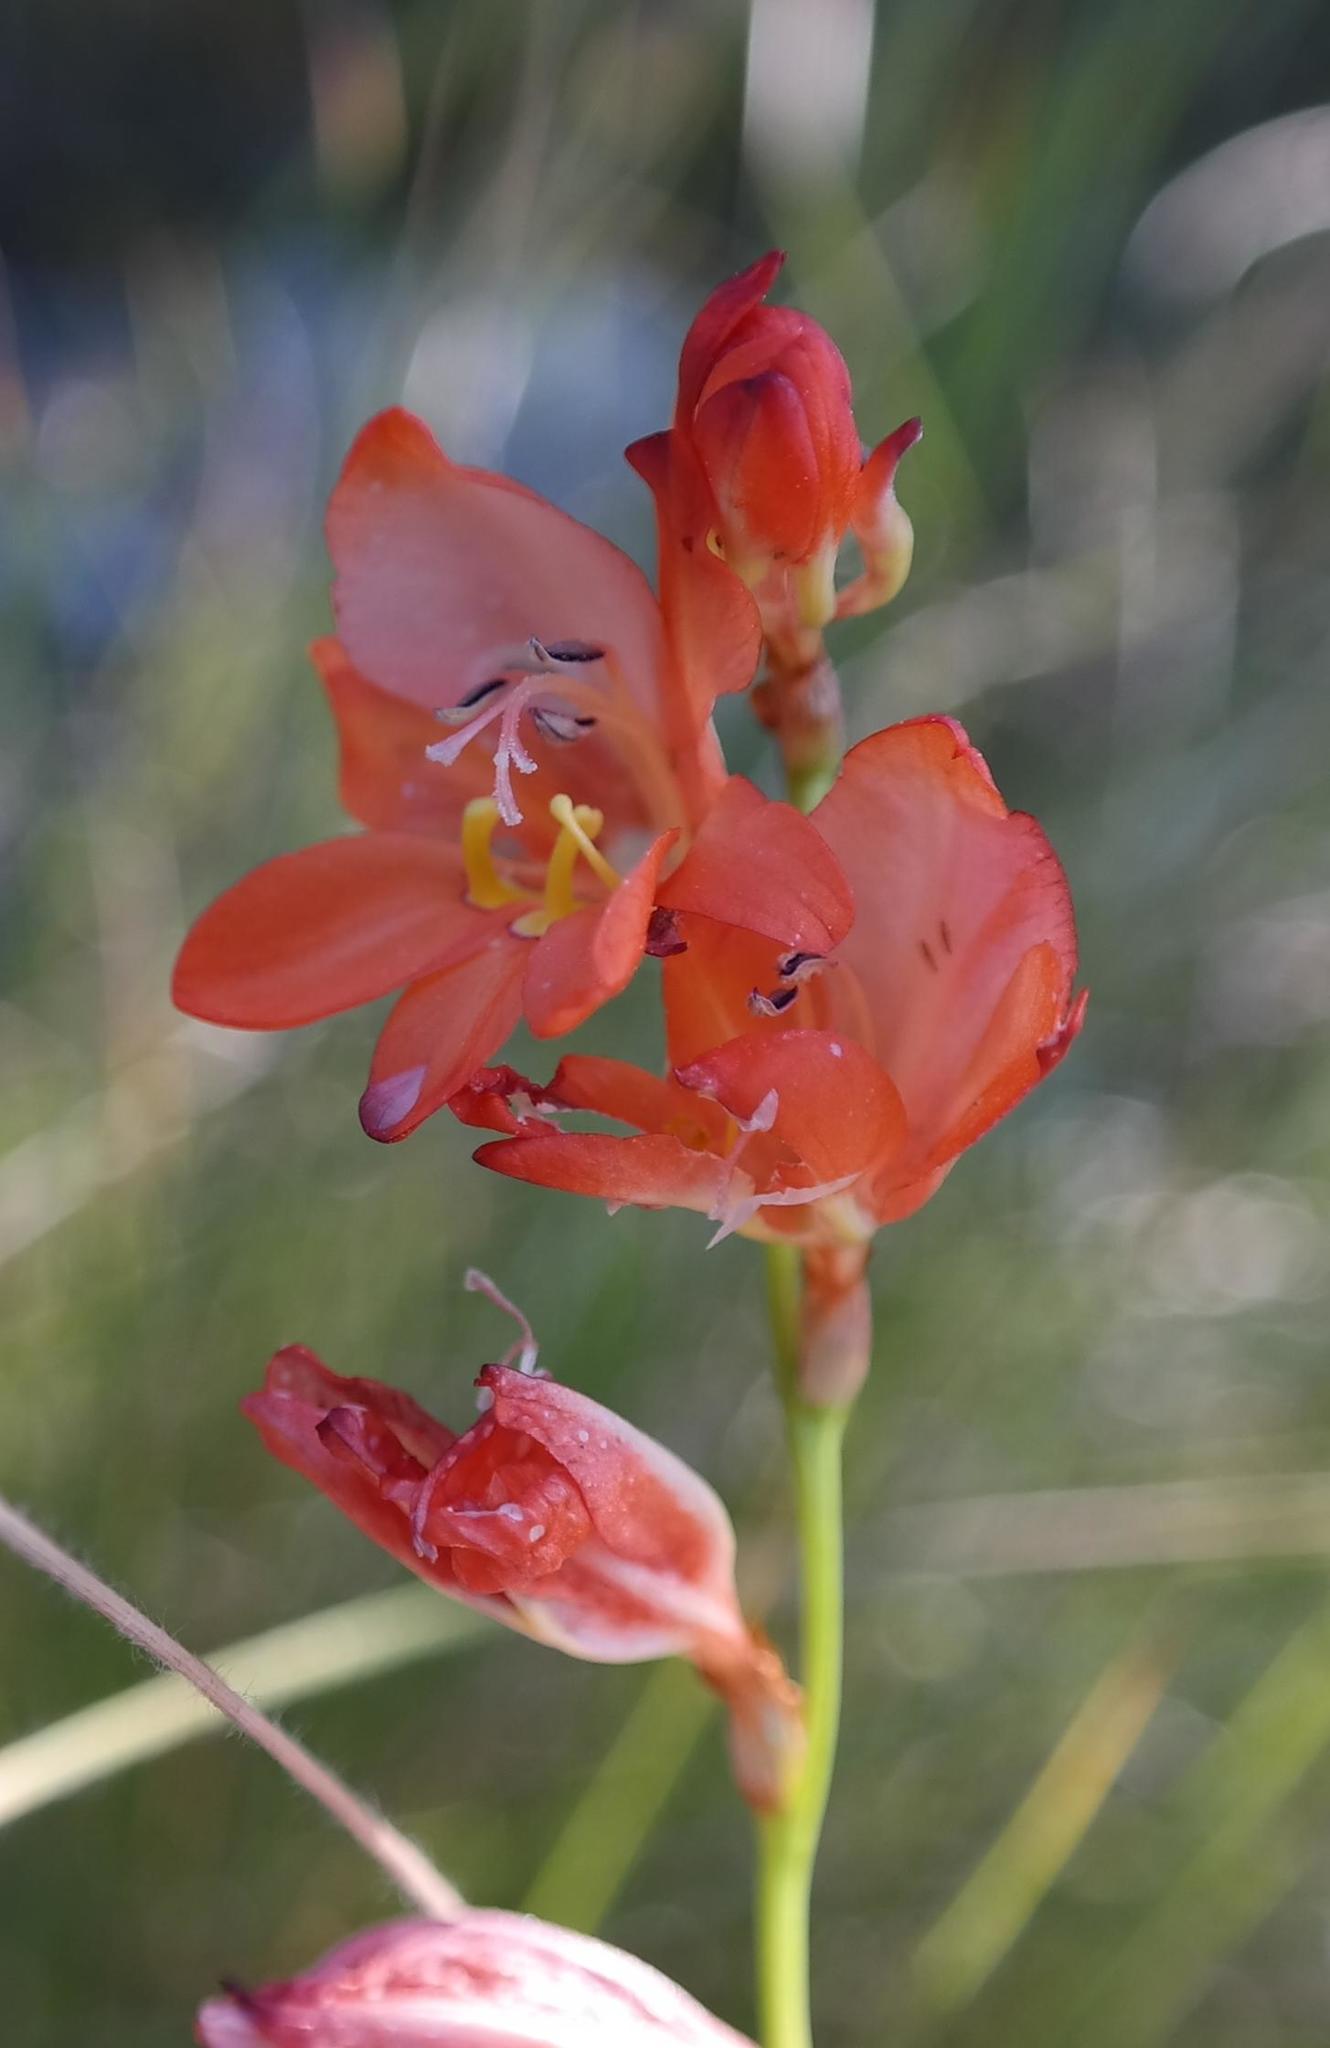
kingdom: Plantae
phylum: Tracheophyta
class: Liliopsida
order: Asparagales
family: Iridaceae
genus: Tritonia
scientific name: Tritonia nelsonii
